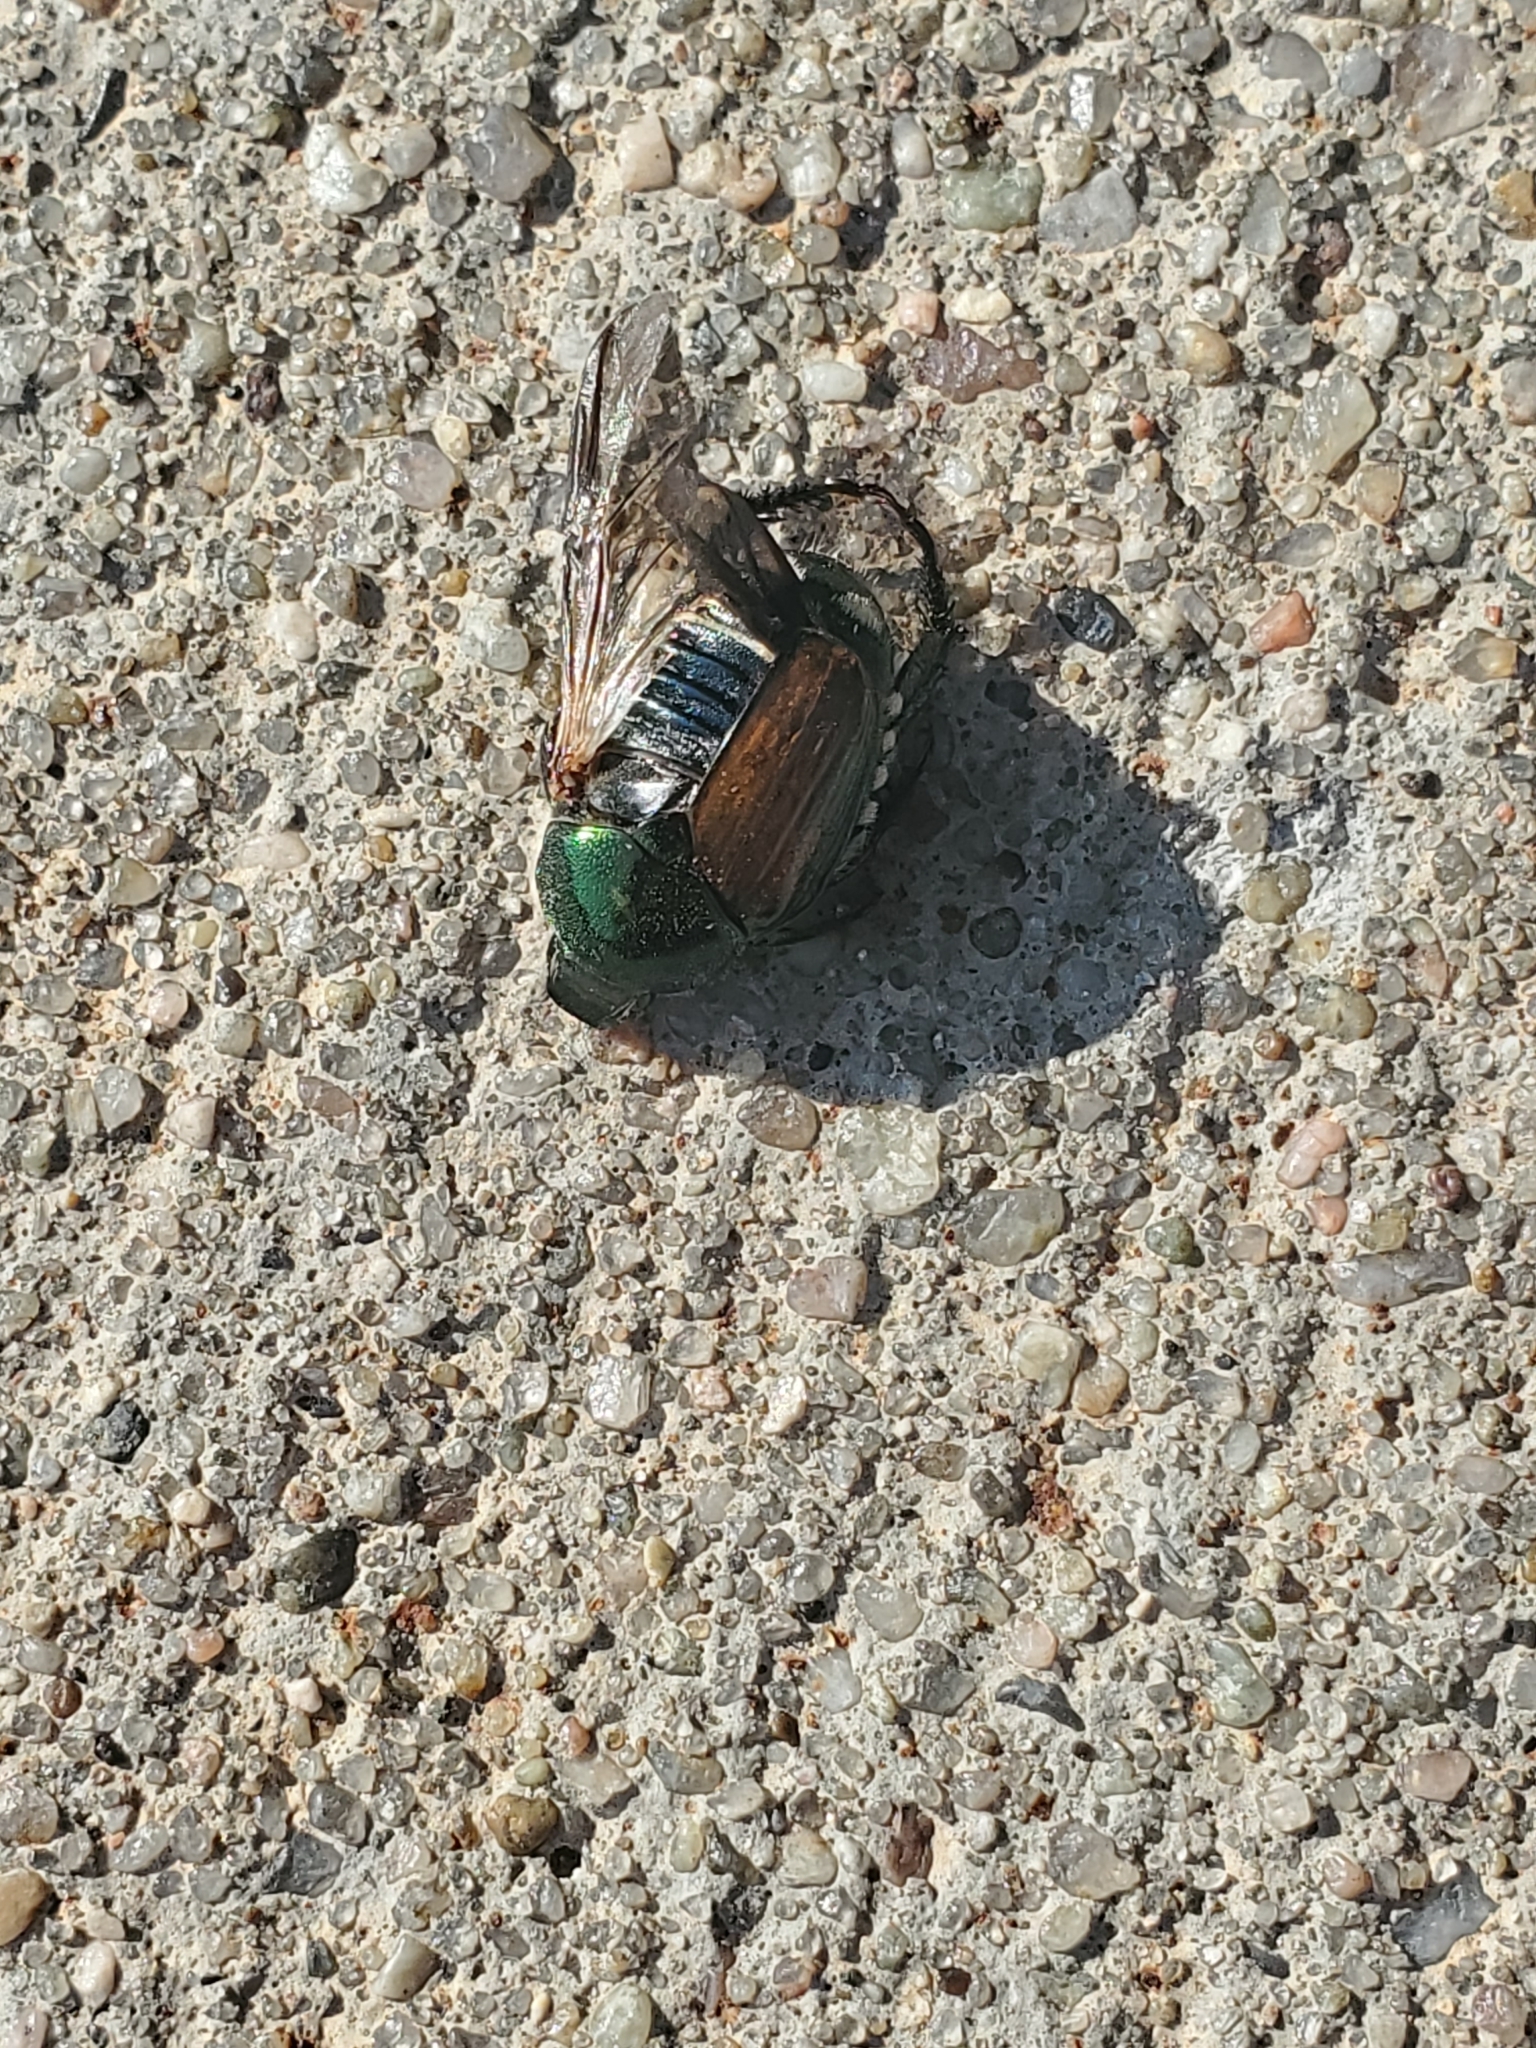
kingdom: Animalia
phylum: Arthropoda
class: Insecta
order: Coleoptera
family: Scarabaeidae
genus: Popillia
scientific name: Popillia japonica
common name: Japanese beetle
